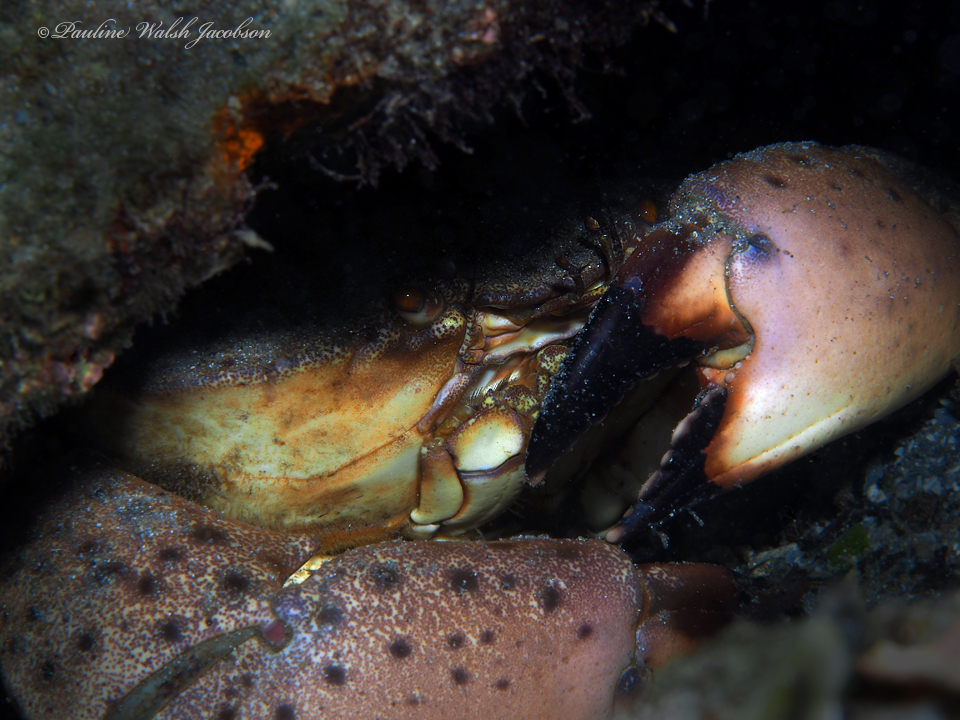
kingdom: Animalia
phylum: Arthropoda
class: Malacostraca
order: Decapoda
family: Menippidae
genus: Menippe
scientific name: Menippe mercenaria
